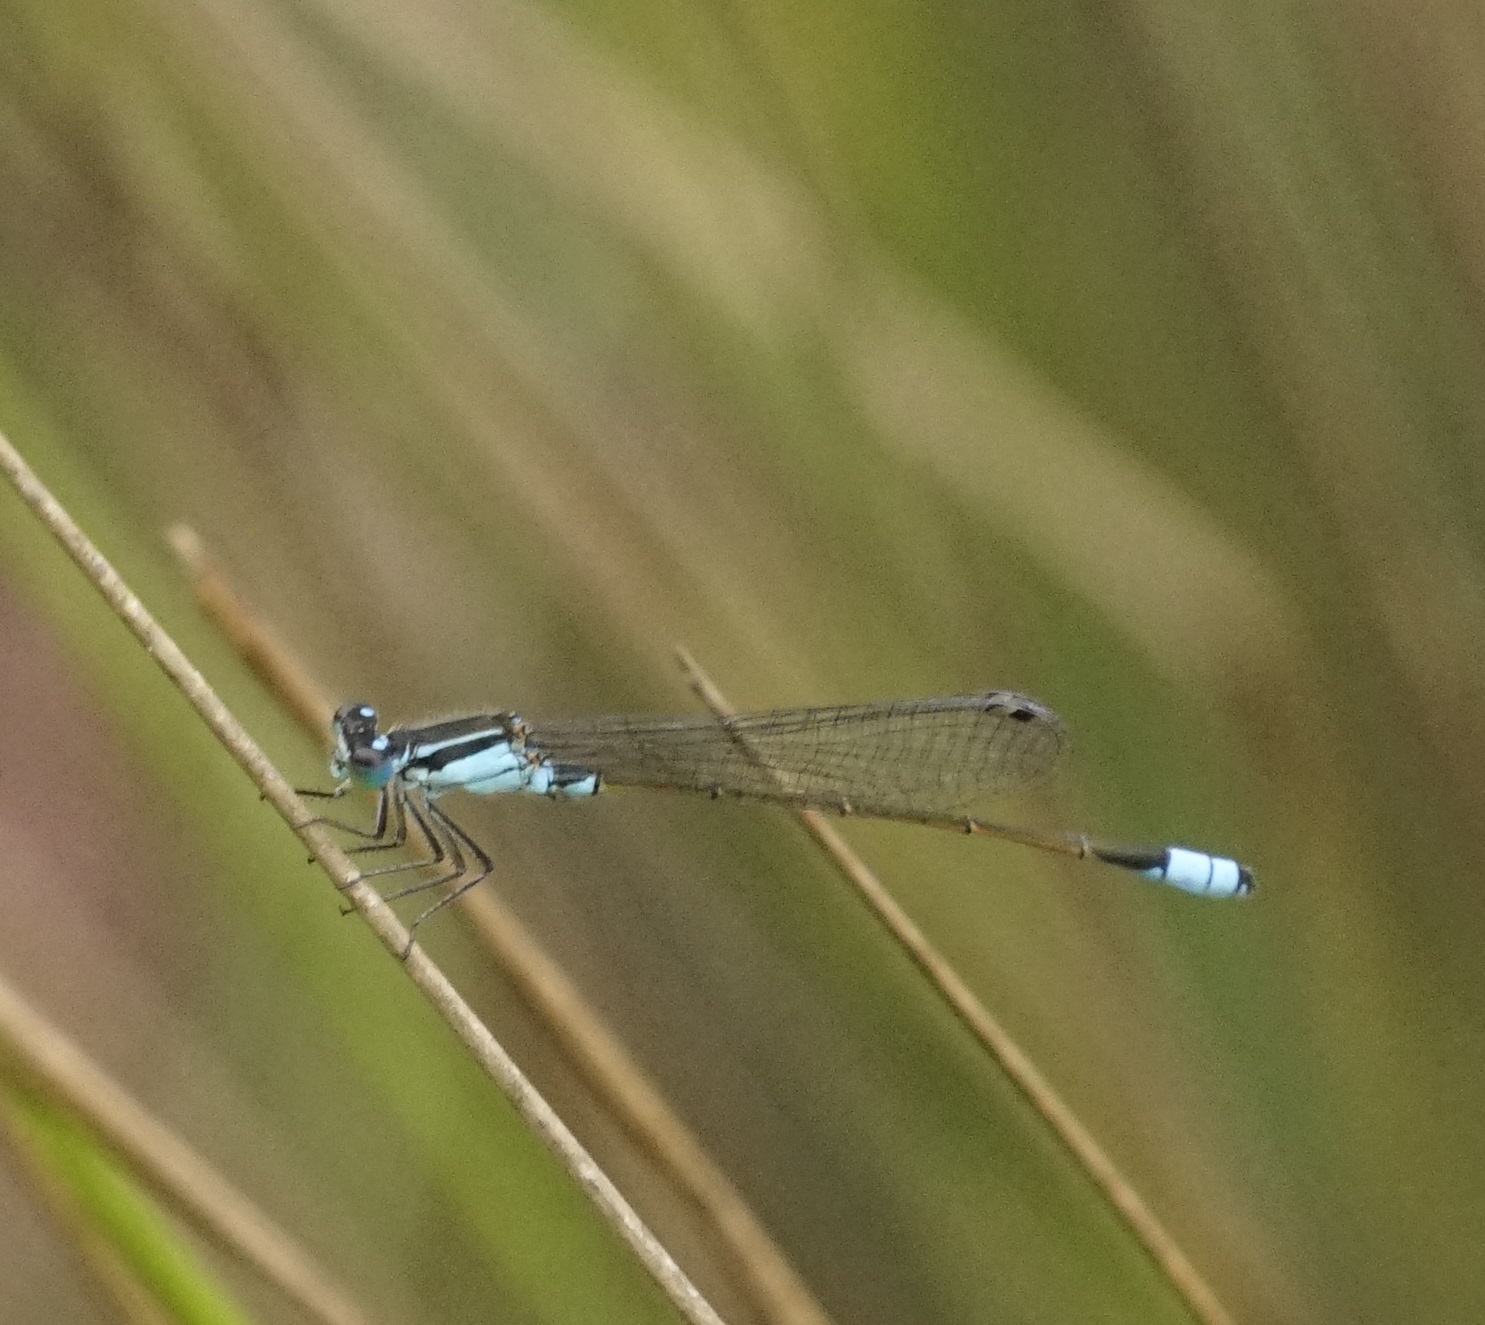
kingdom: Animalia
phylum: Arthropoda
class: Insecta
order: Odonata
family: Coenagrionidae
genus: Ischnura
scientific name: Ischnura heterosticta
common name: Common bluetail
